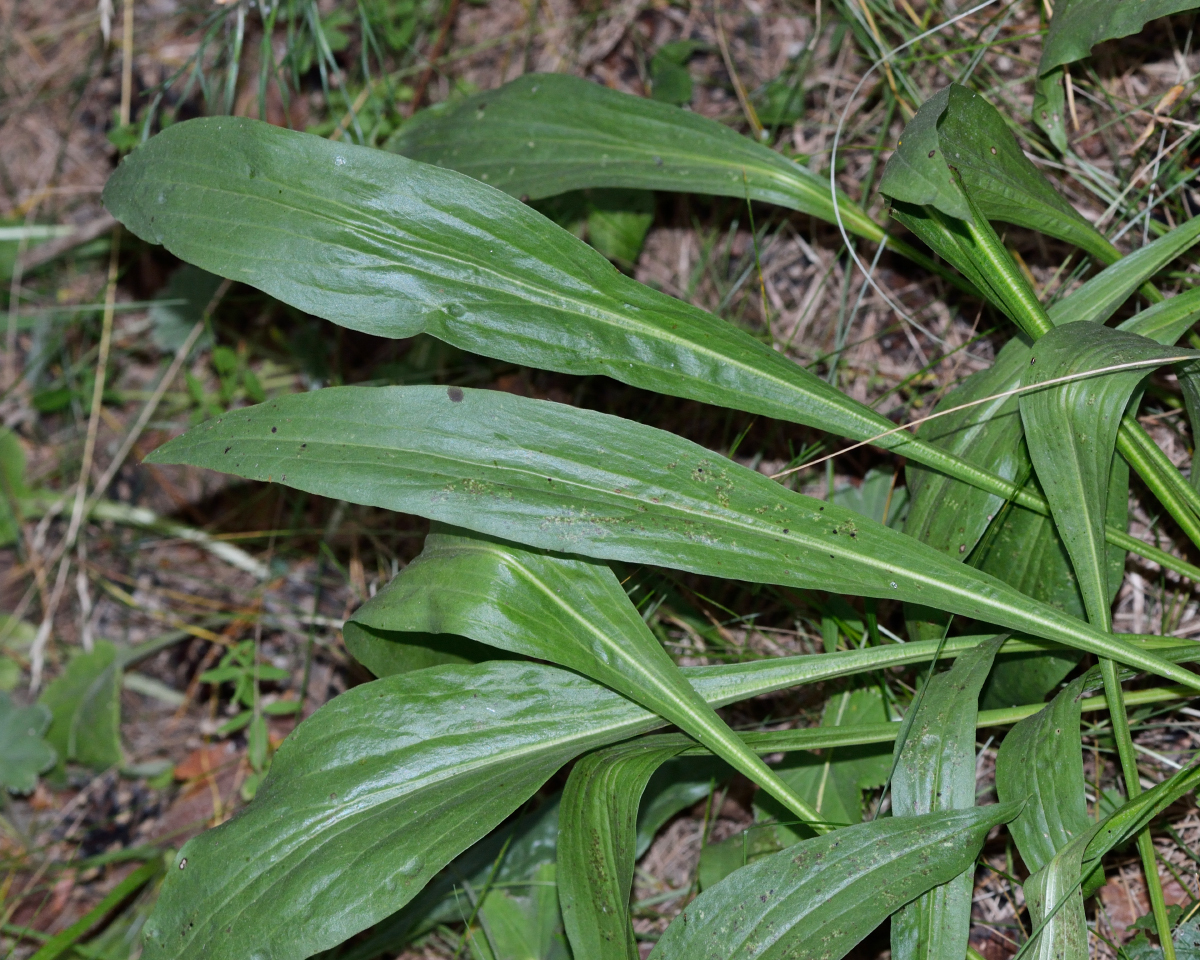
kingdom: Plantae
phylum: Tracheophyta
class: Magnoliopsida
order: Asterales
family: Asteraceae
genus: Scorzonera
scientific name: Scorzonera humilis
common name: Viper's-grass
